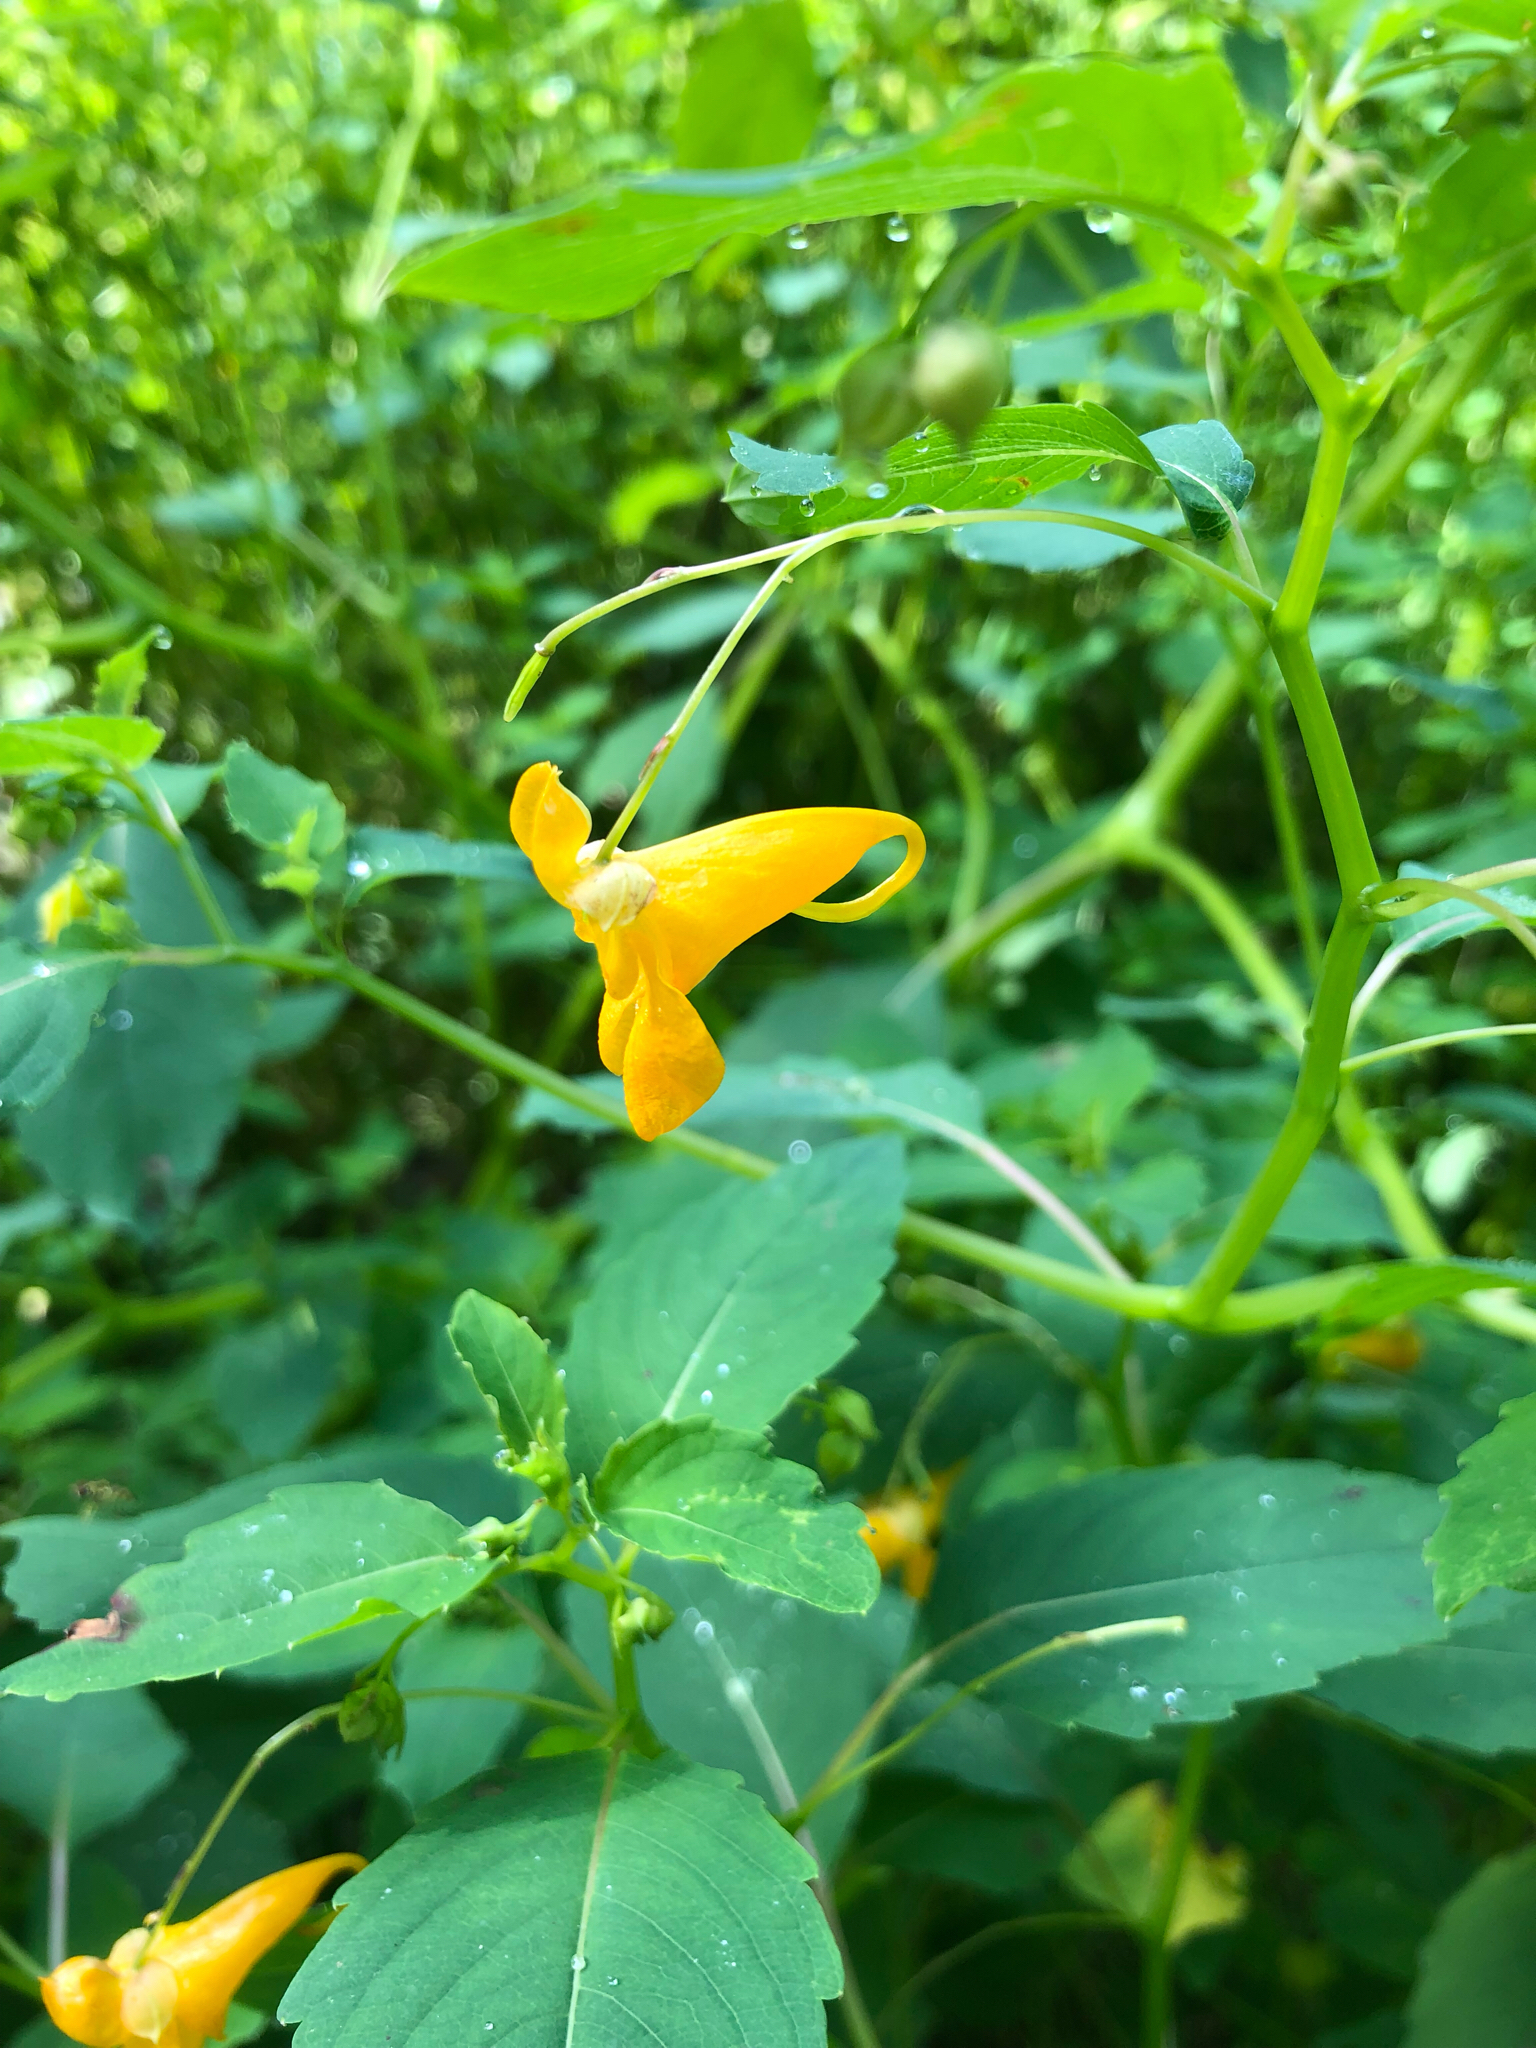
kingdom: Plantae
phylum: Tracheophyta
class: Magnoliopsida
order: Ericales
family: Balsaminaceae
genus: Impatiens
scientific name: Impatiens capensis
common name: Orange balsam
